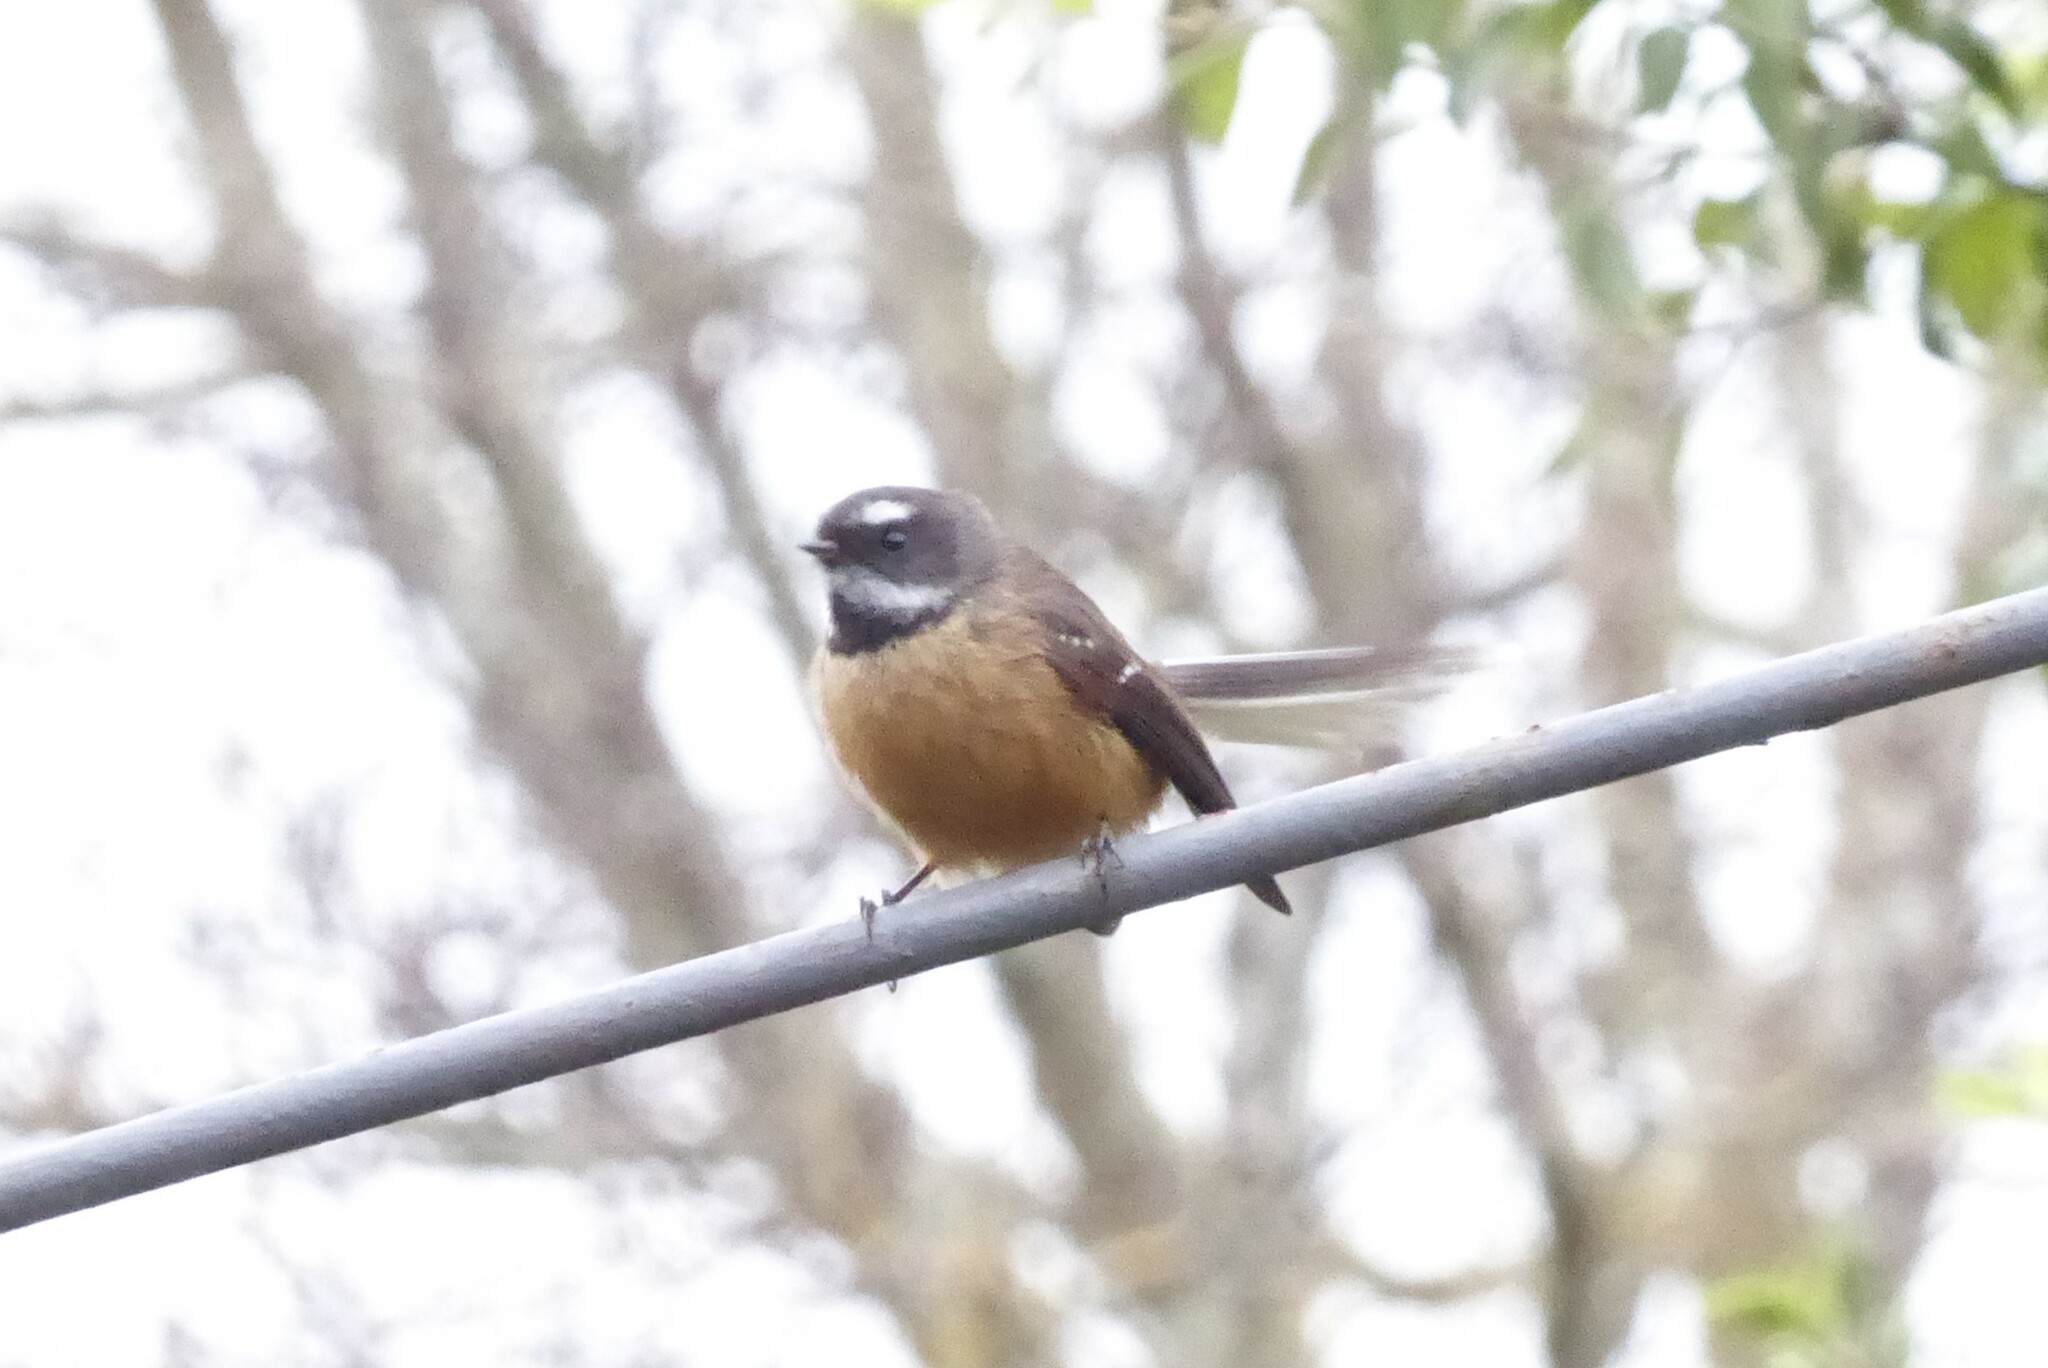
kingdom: Animalia
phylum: Chordata
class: Aves
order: Passeriformes
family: Rhipiduridae
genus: Rhipidura
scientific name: Rhipidura fuliginosa
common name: New zealand fantail
